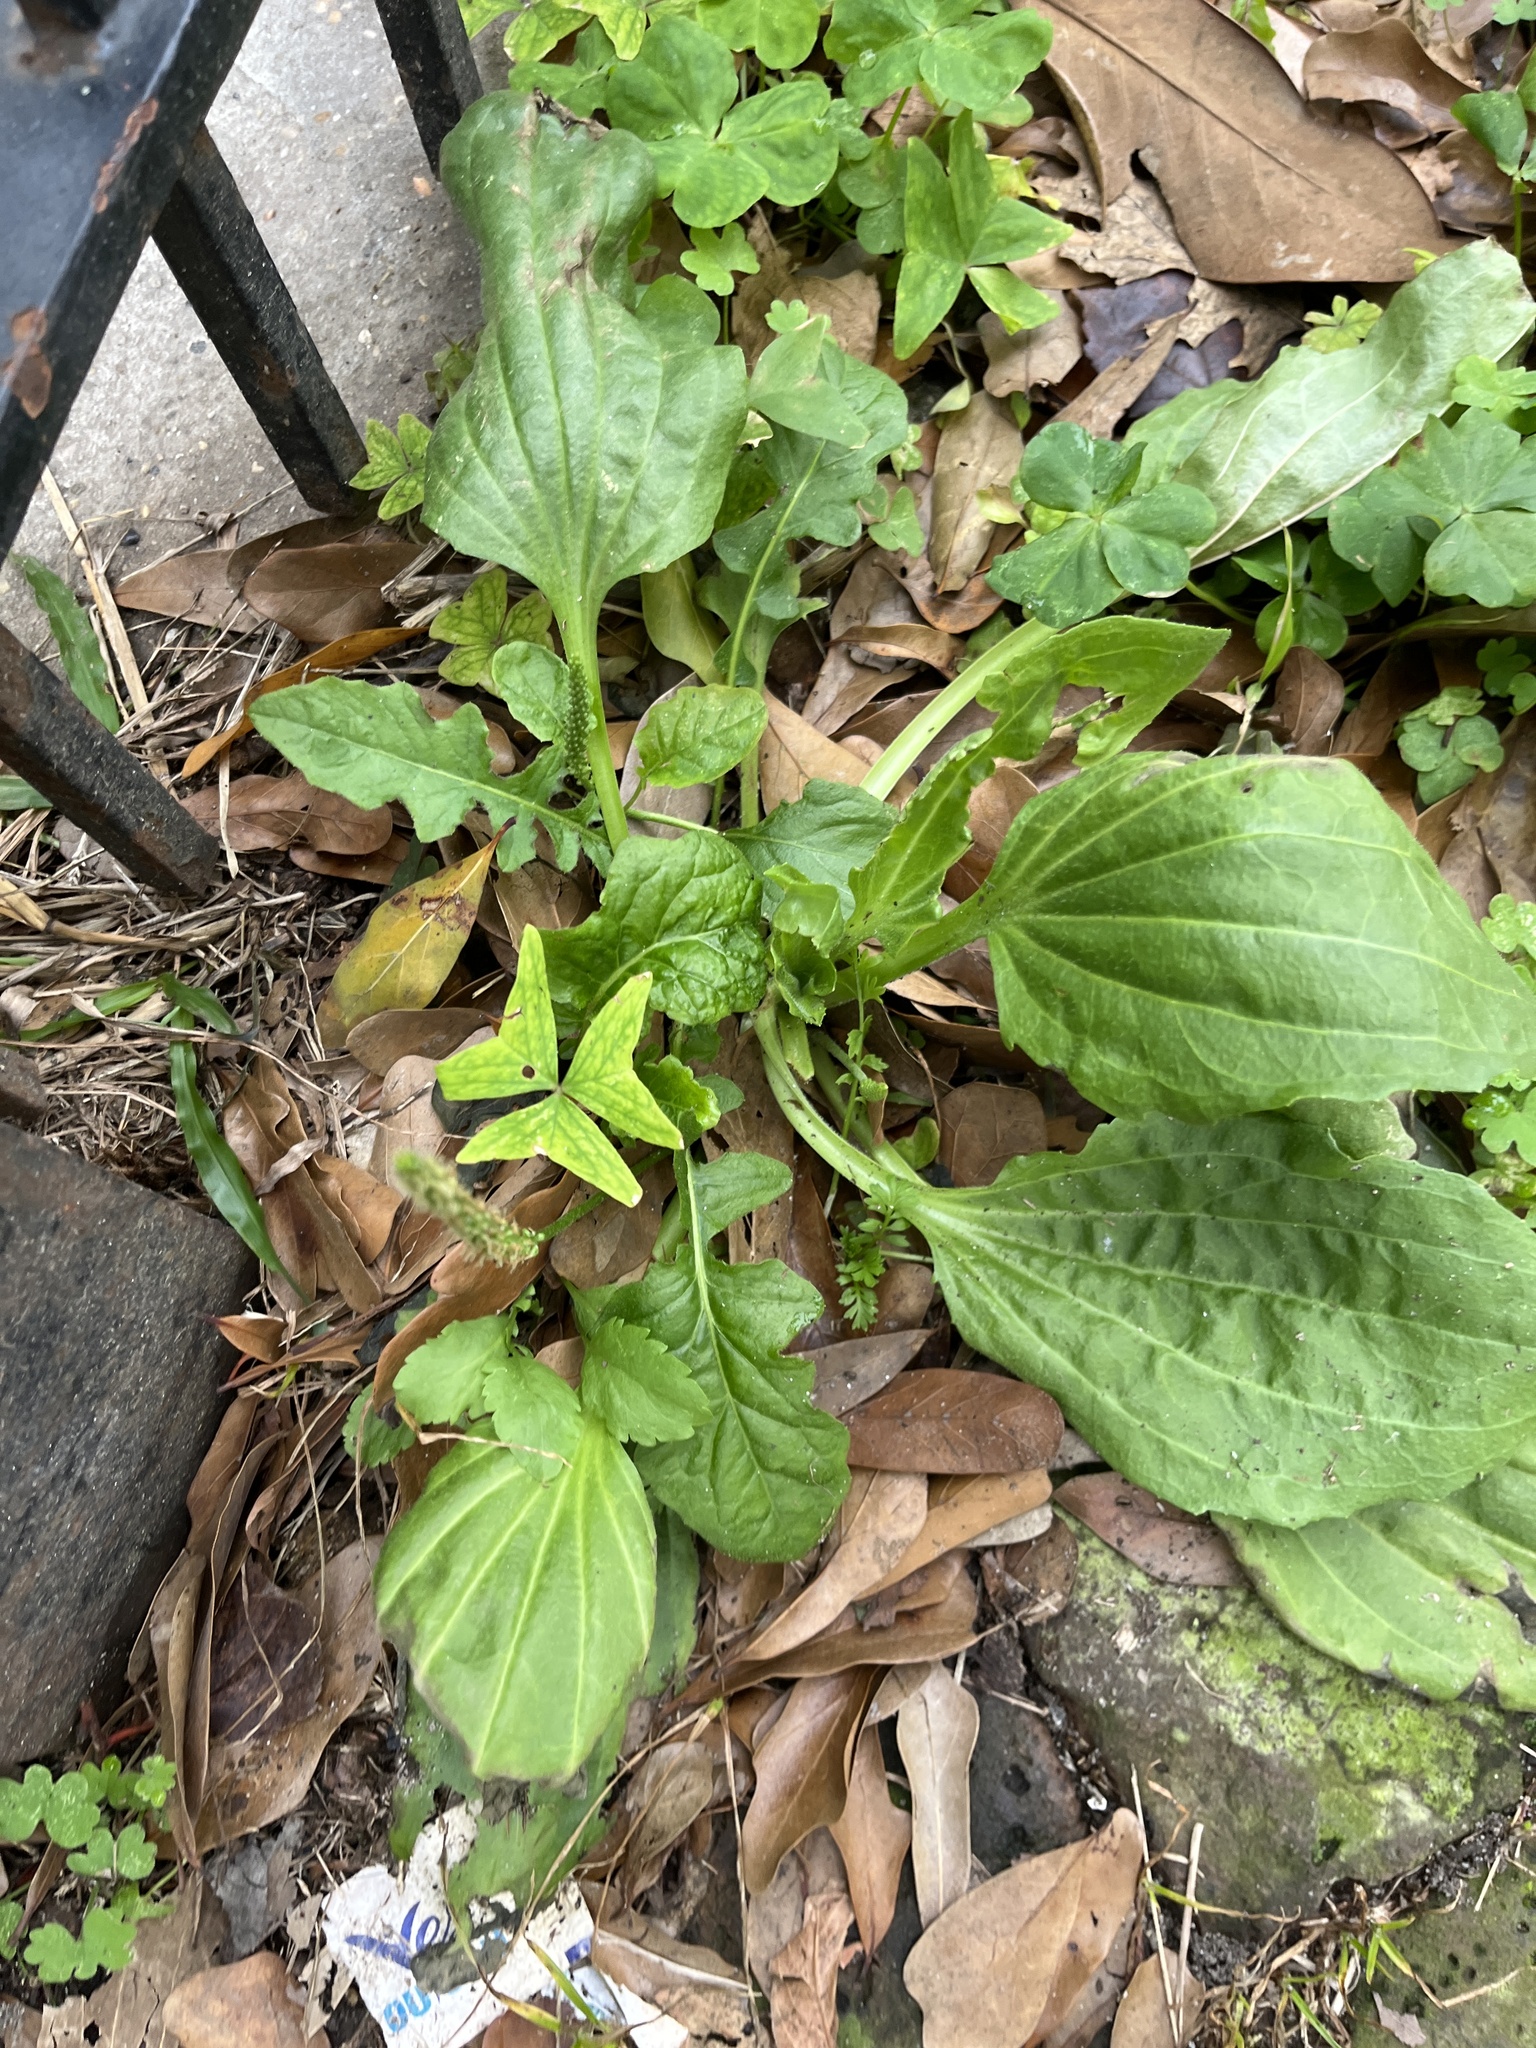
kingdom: Plantae
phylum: Tracheophyta
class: Magnoliopsida
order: Lamiales
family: Plantaginaceae
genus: Plantago
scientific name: Plantago major
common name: Common plantain
